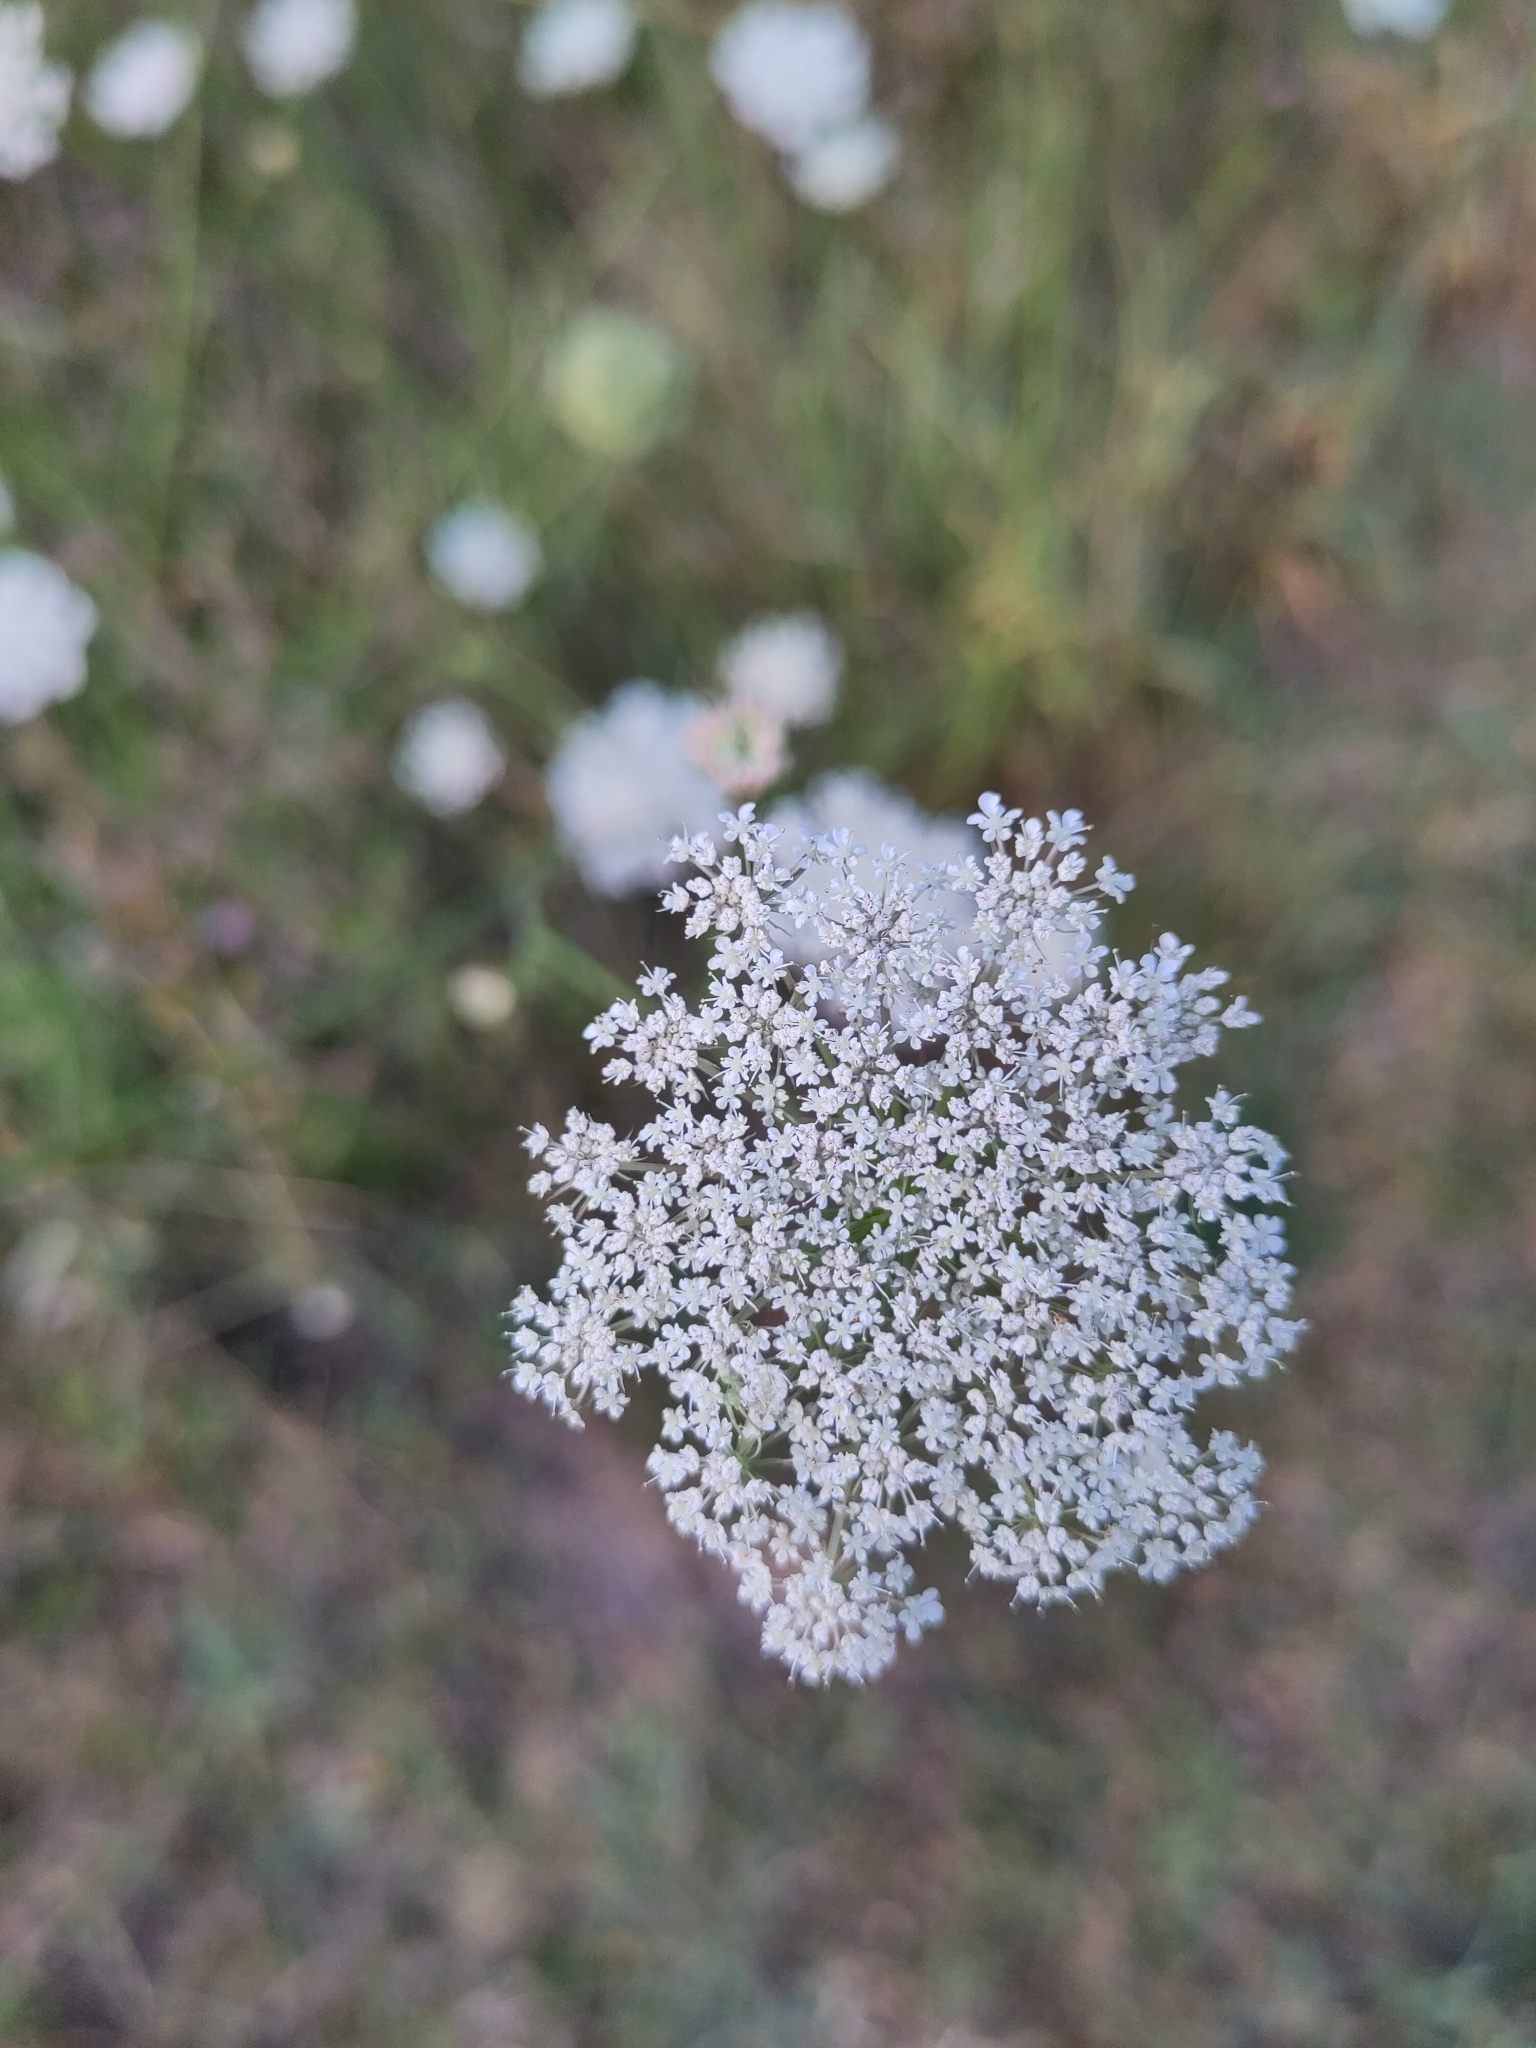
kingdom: Plantae
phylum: Tracheophyta
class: Magnoliopsida
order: Apiales
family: Apiaceae
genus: Daucus
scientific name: Daucus carota
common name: Wild carrot
